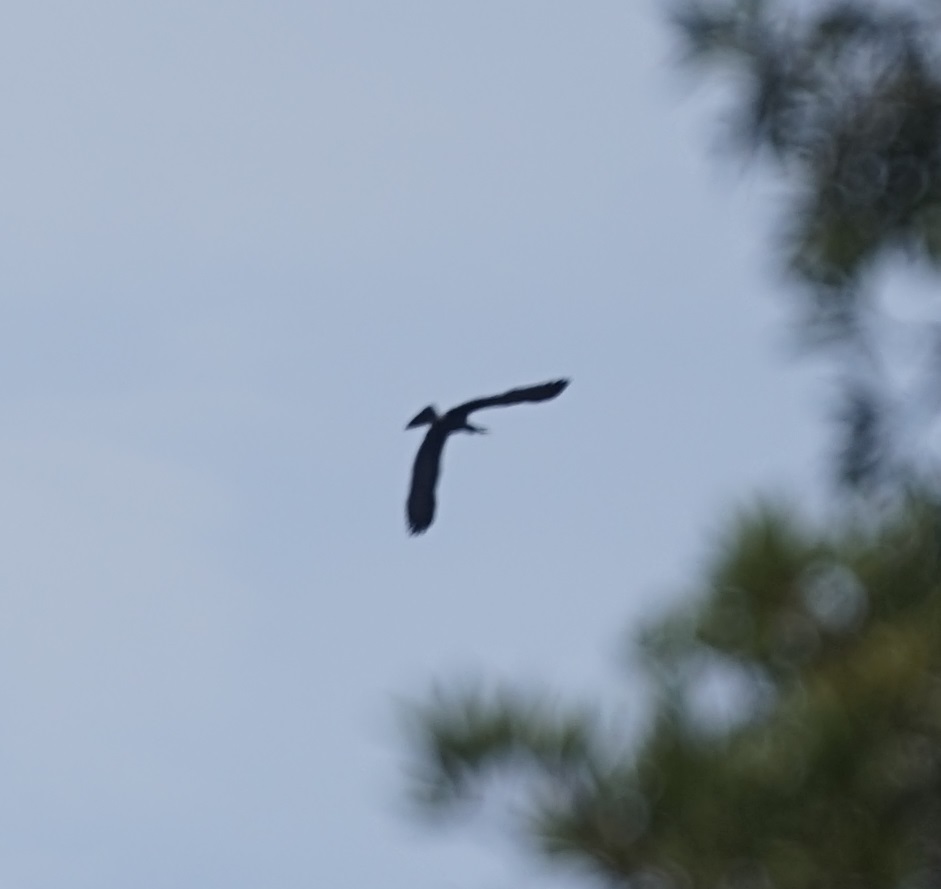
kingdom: Animalia
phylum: Chordata
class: Aves
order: Suliformes
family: Anhingidae
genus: Anhinga
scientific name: Anhinga novaehollandiae
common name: Australasian darter
